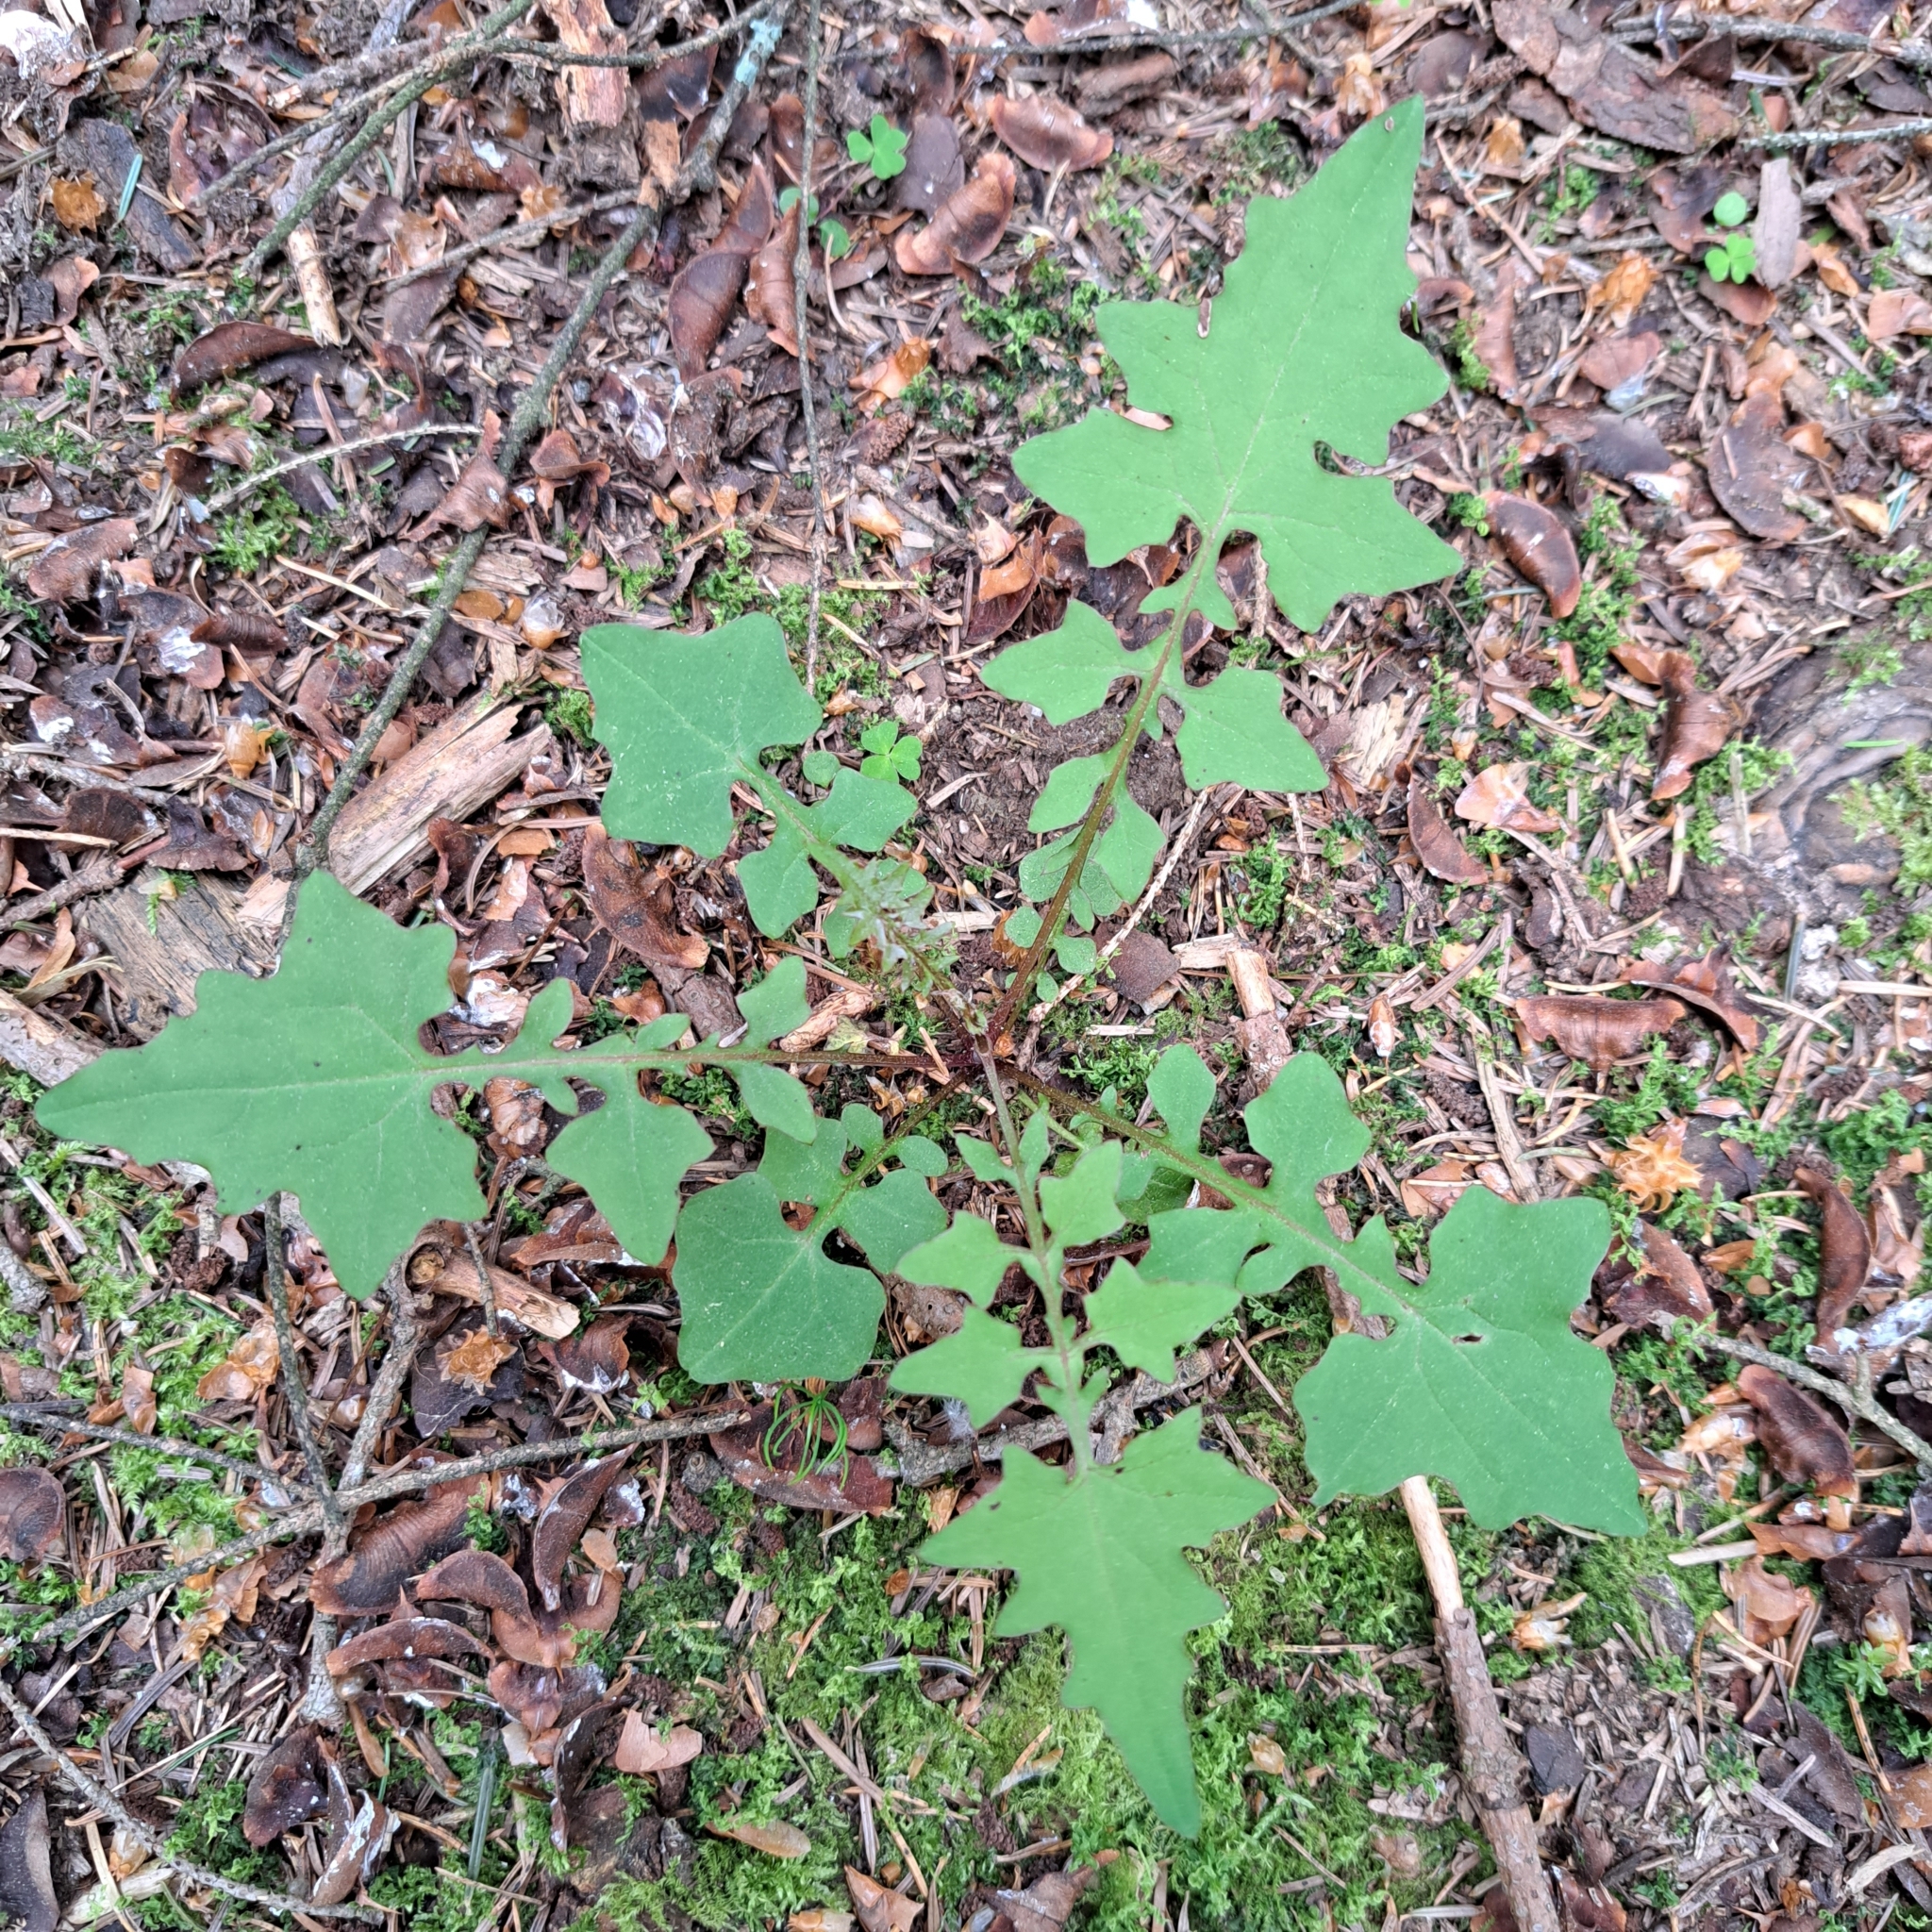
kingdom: Plantae
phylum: Tracheophyta
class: Magnoliopsida
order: Asterales
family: Asteraceae
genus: Mycelis
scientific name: Mycelis muralis
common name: Wall lettuce
